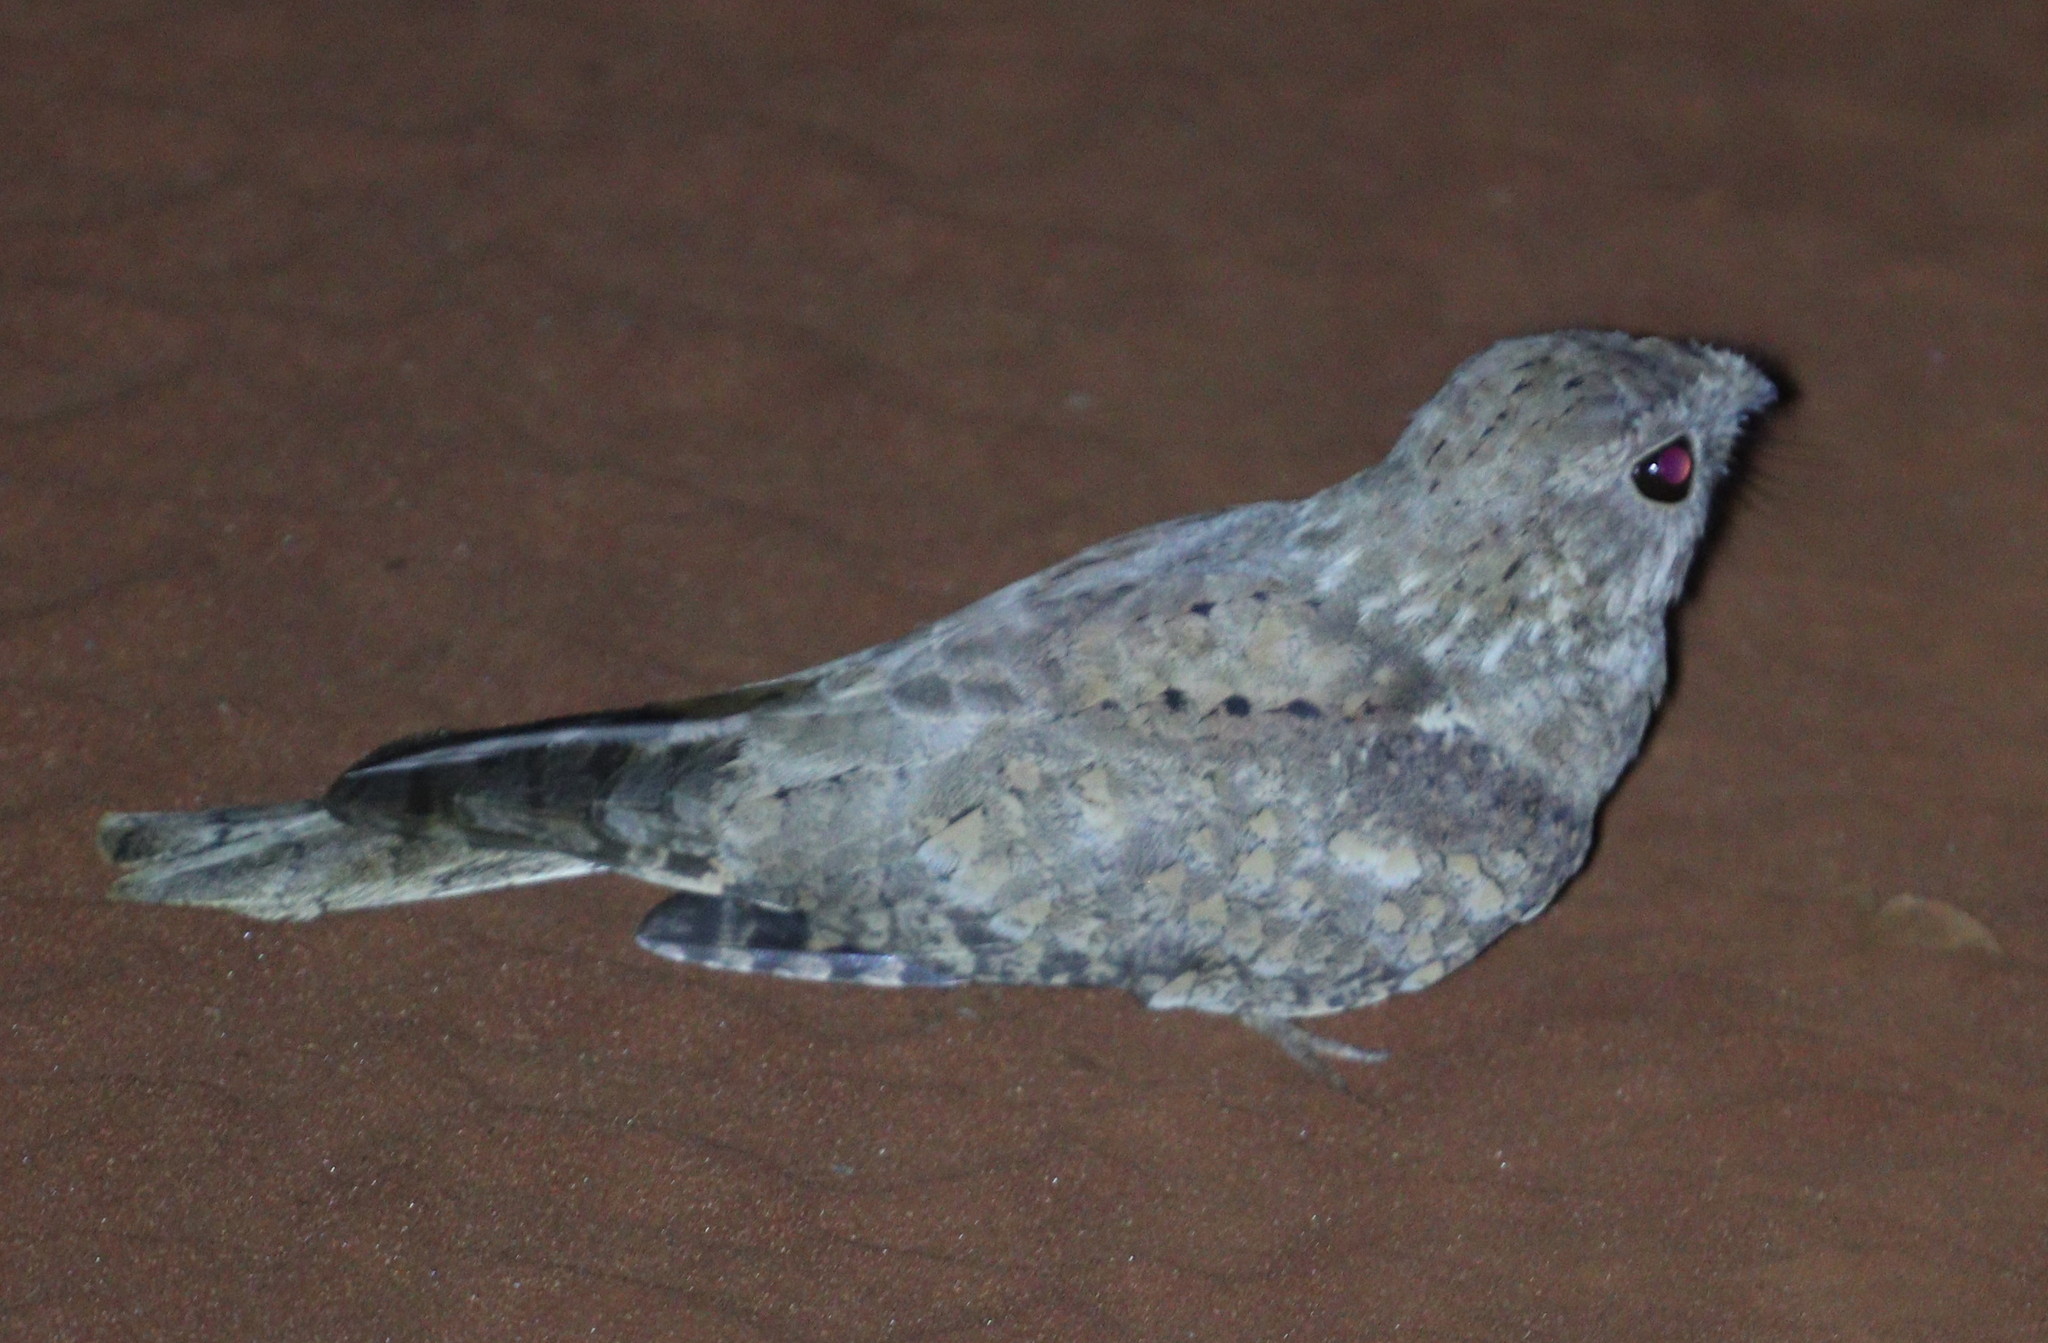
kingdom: Animalia
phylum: Chordata
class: Aves
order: Caprimulgiformes
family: Caprimulgidae
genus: Caprimulgus
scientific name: Caprimulgus inornatus
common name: Plain nightjar
